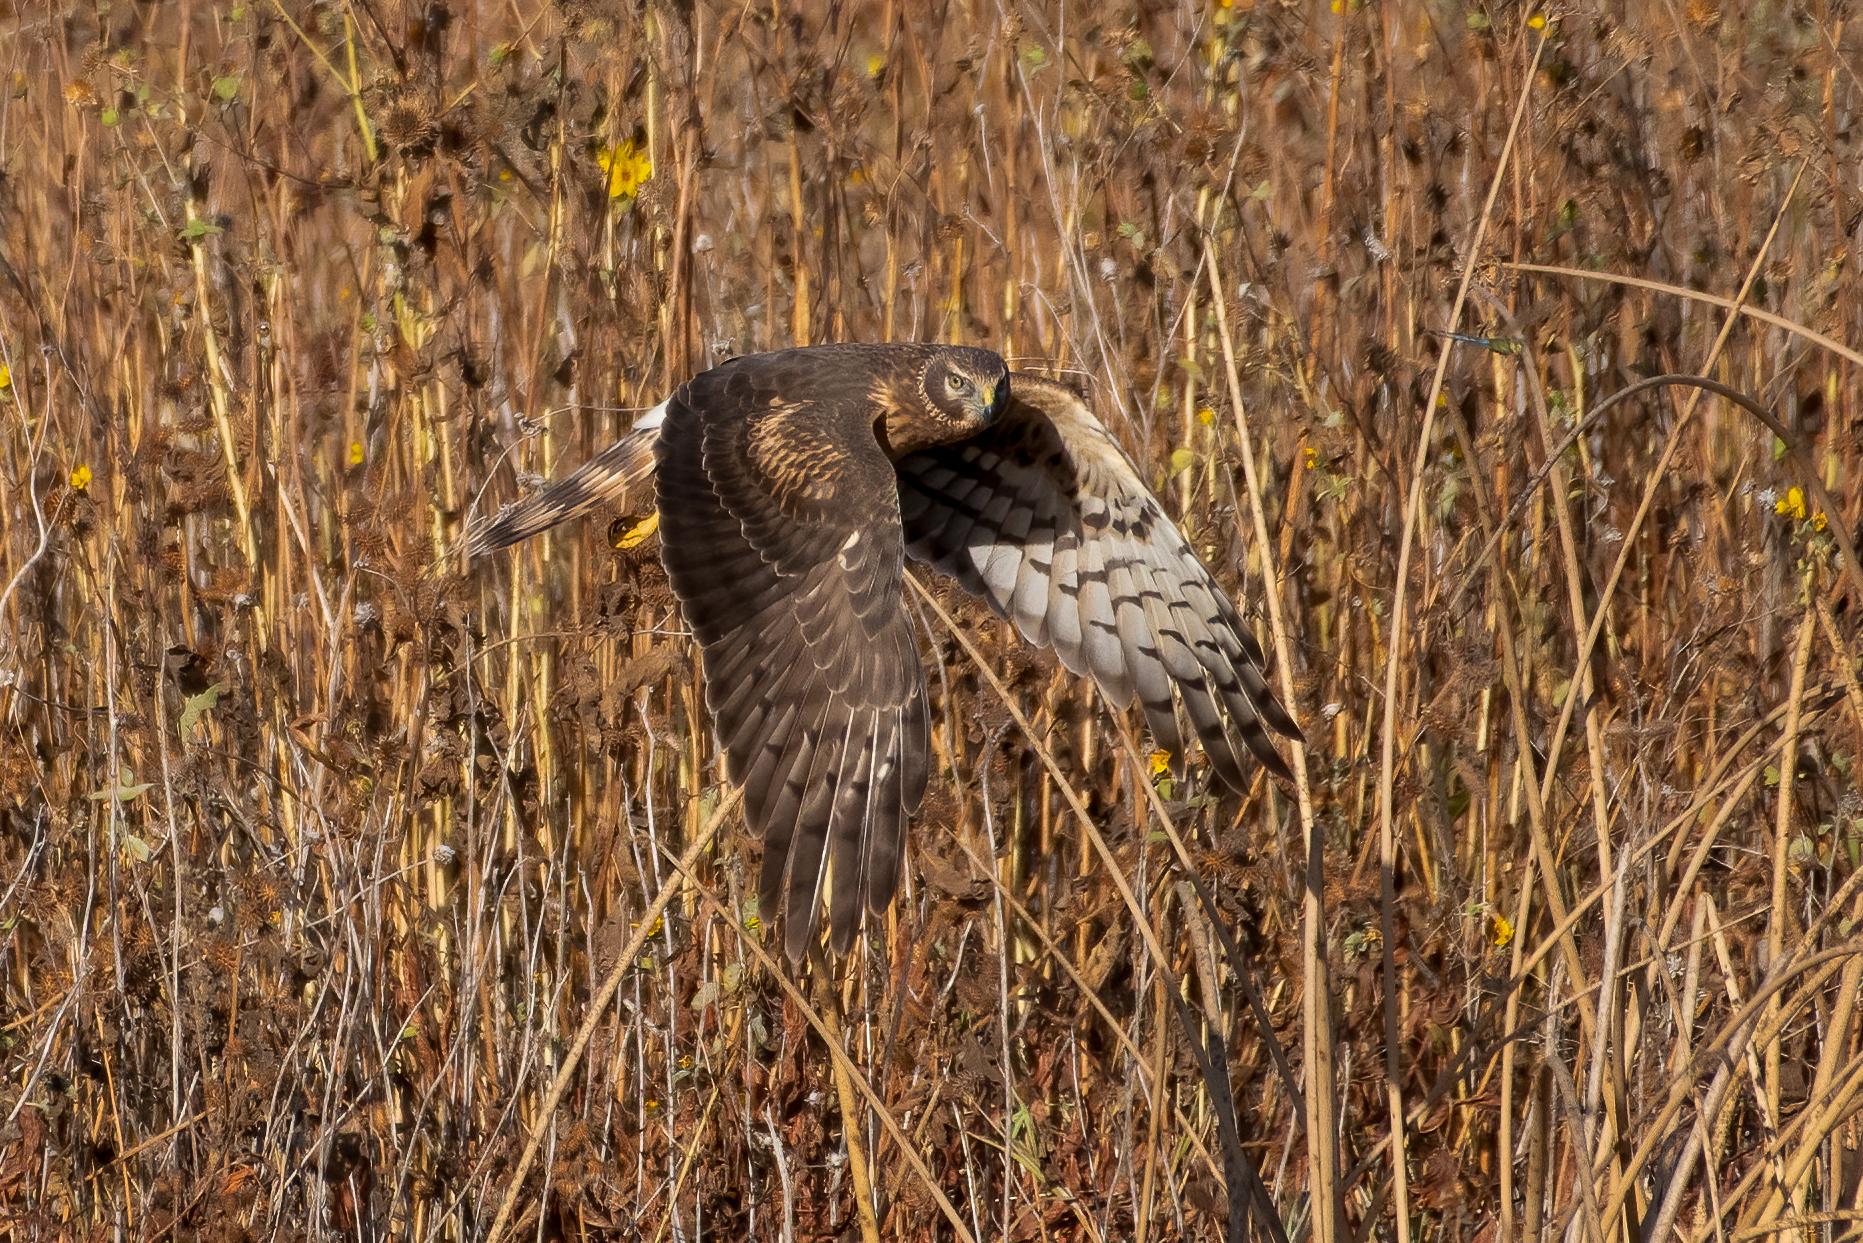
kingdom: Animalia
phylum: Chordata
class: Aves
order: Accipitriformes
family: Accipitridae
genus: Circus
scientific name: Circus cyaneus
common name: Hen harrier
